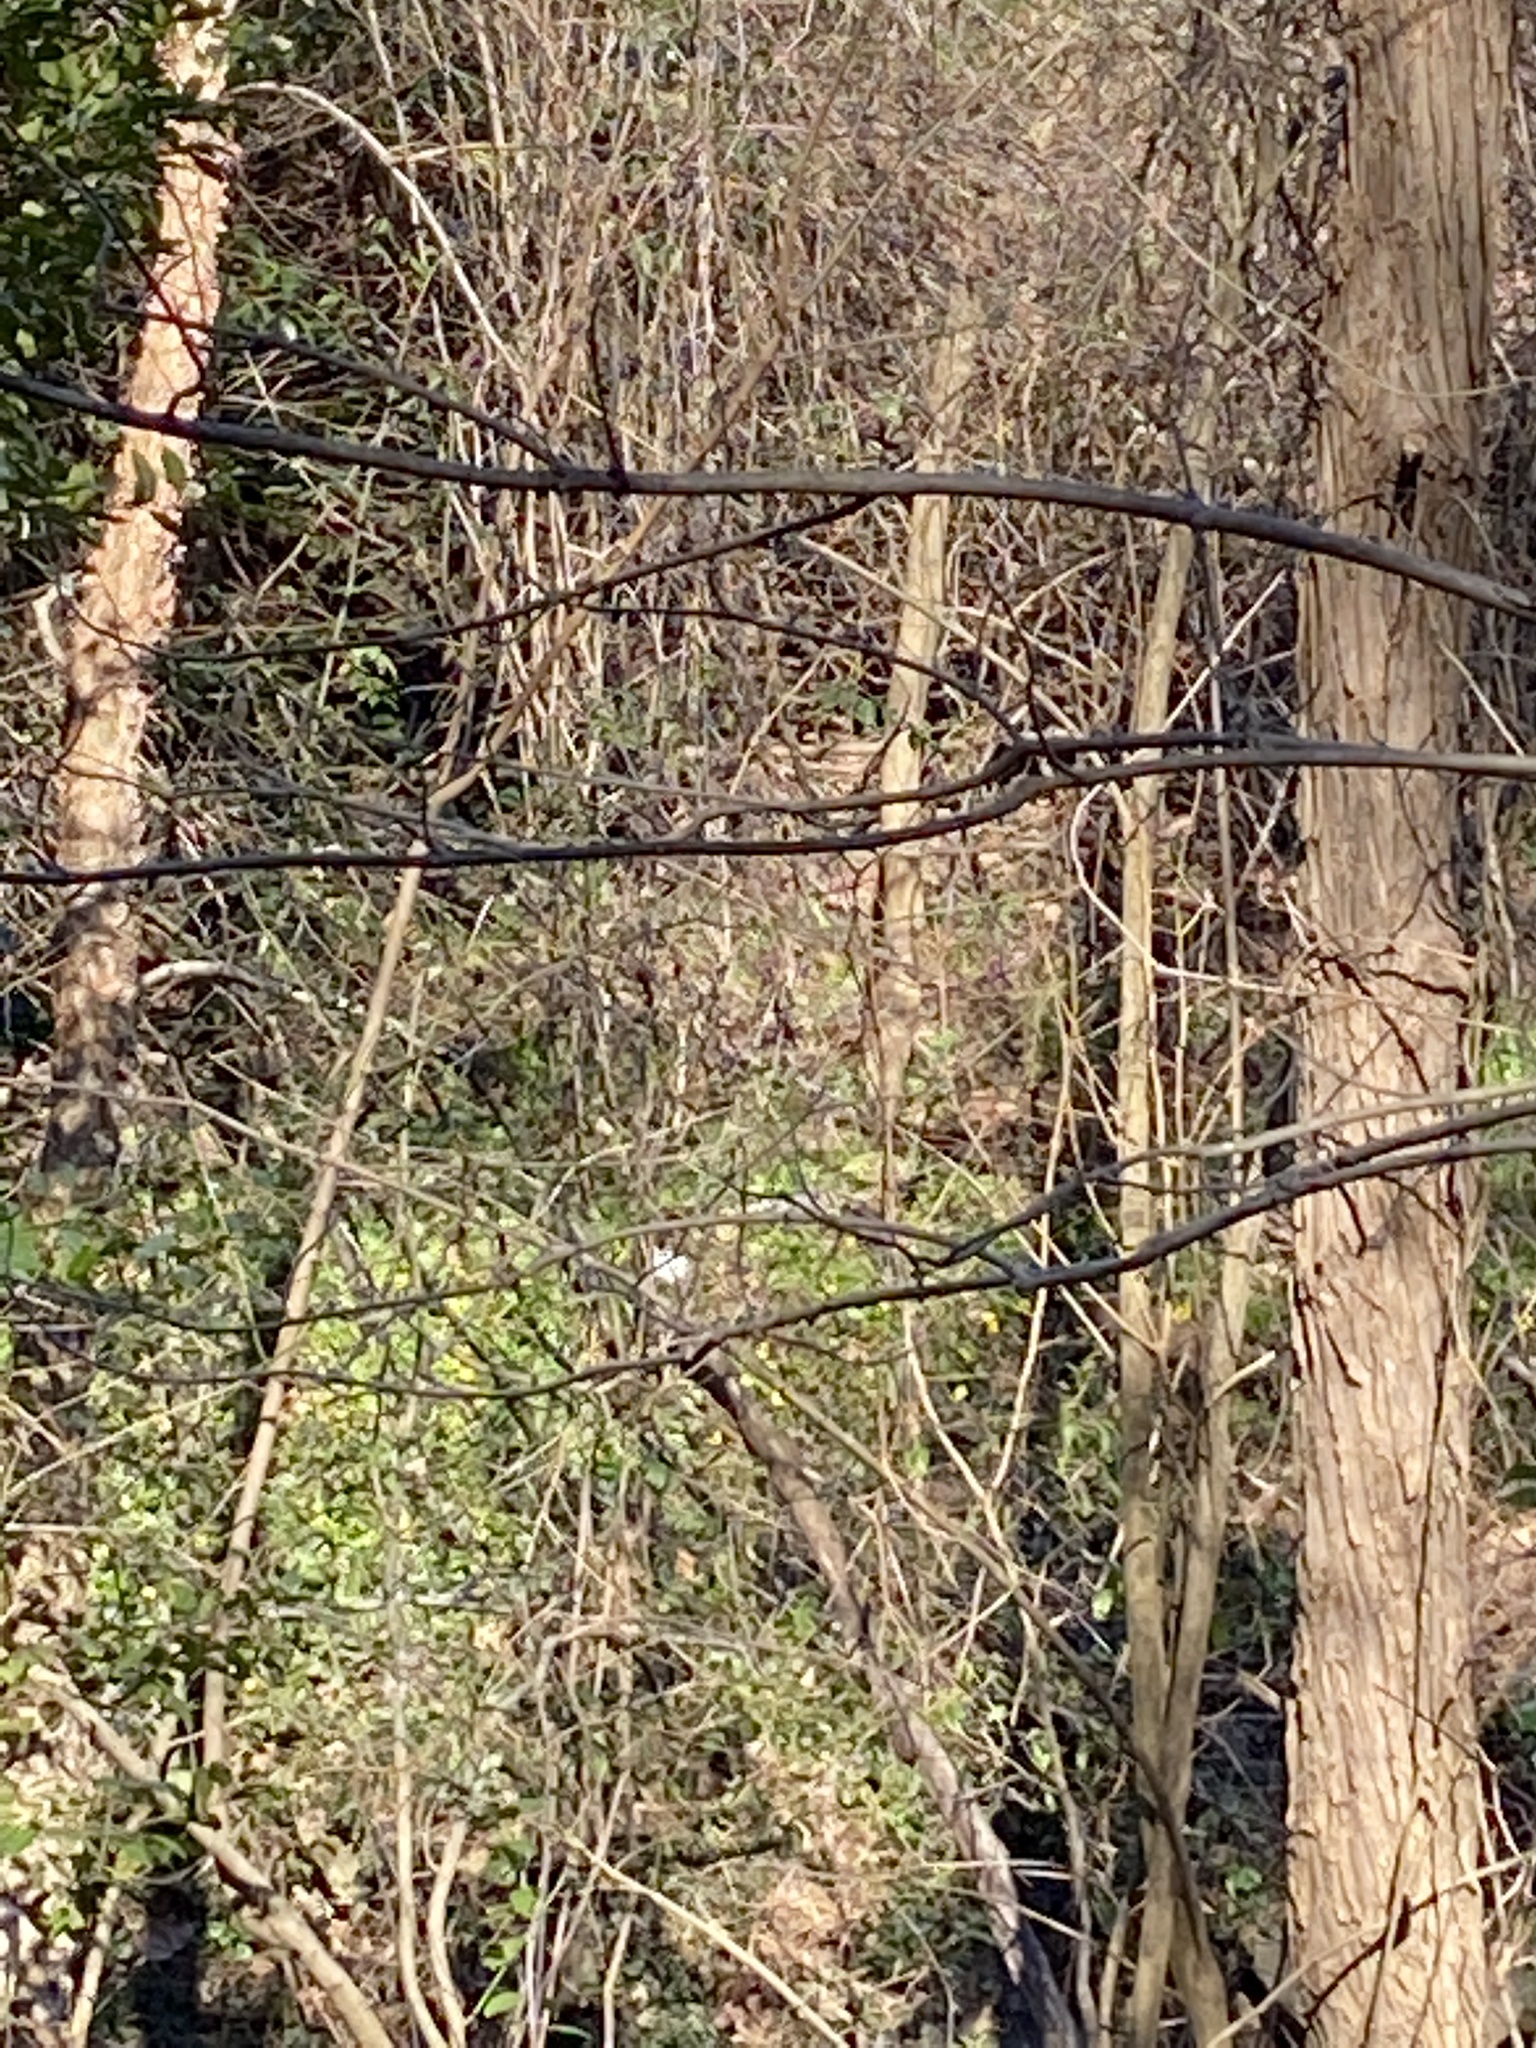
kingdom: Plantae
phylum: Tracheophyta
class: Magnoliopsida
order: Ranunculales
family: Ranunculaceae
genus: Ficaria
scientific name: Ficaria verna
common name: Lesser celandine
